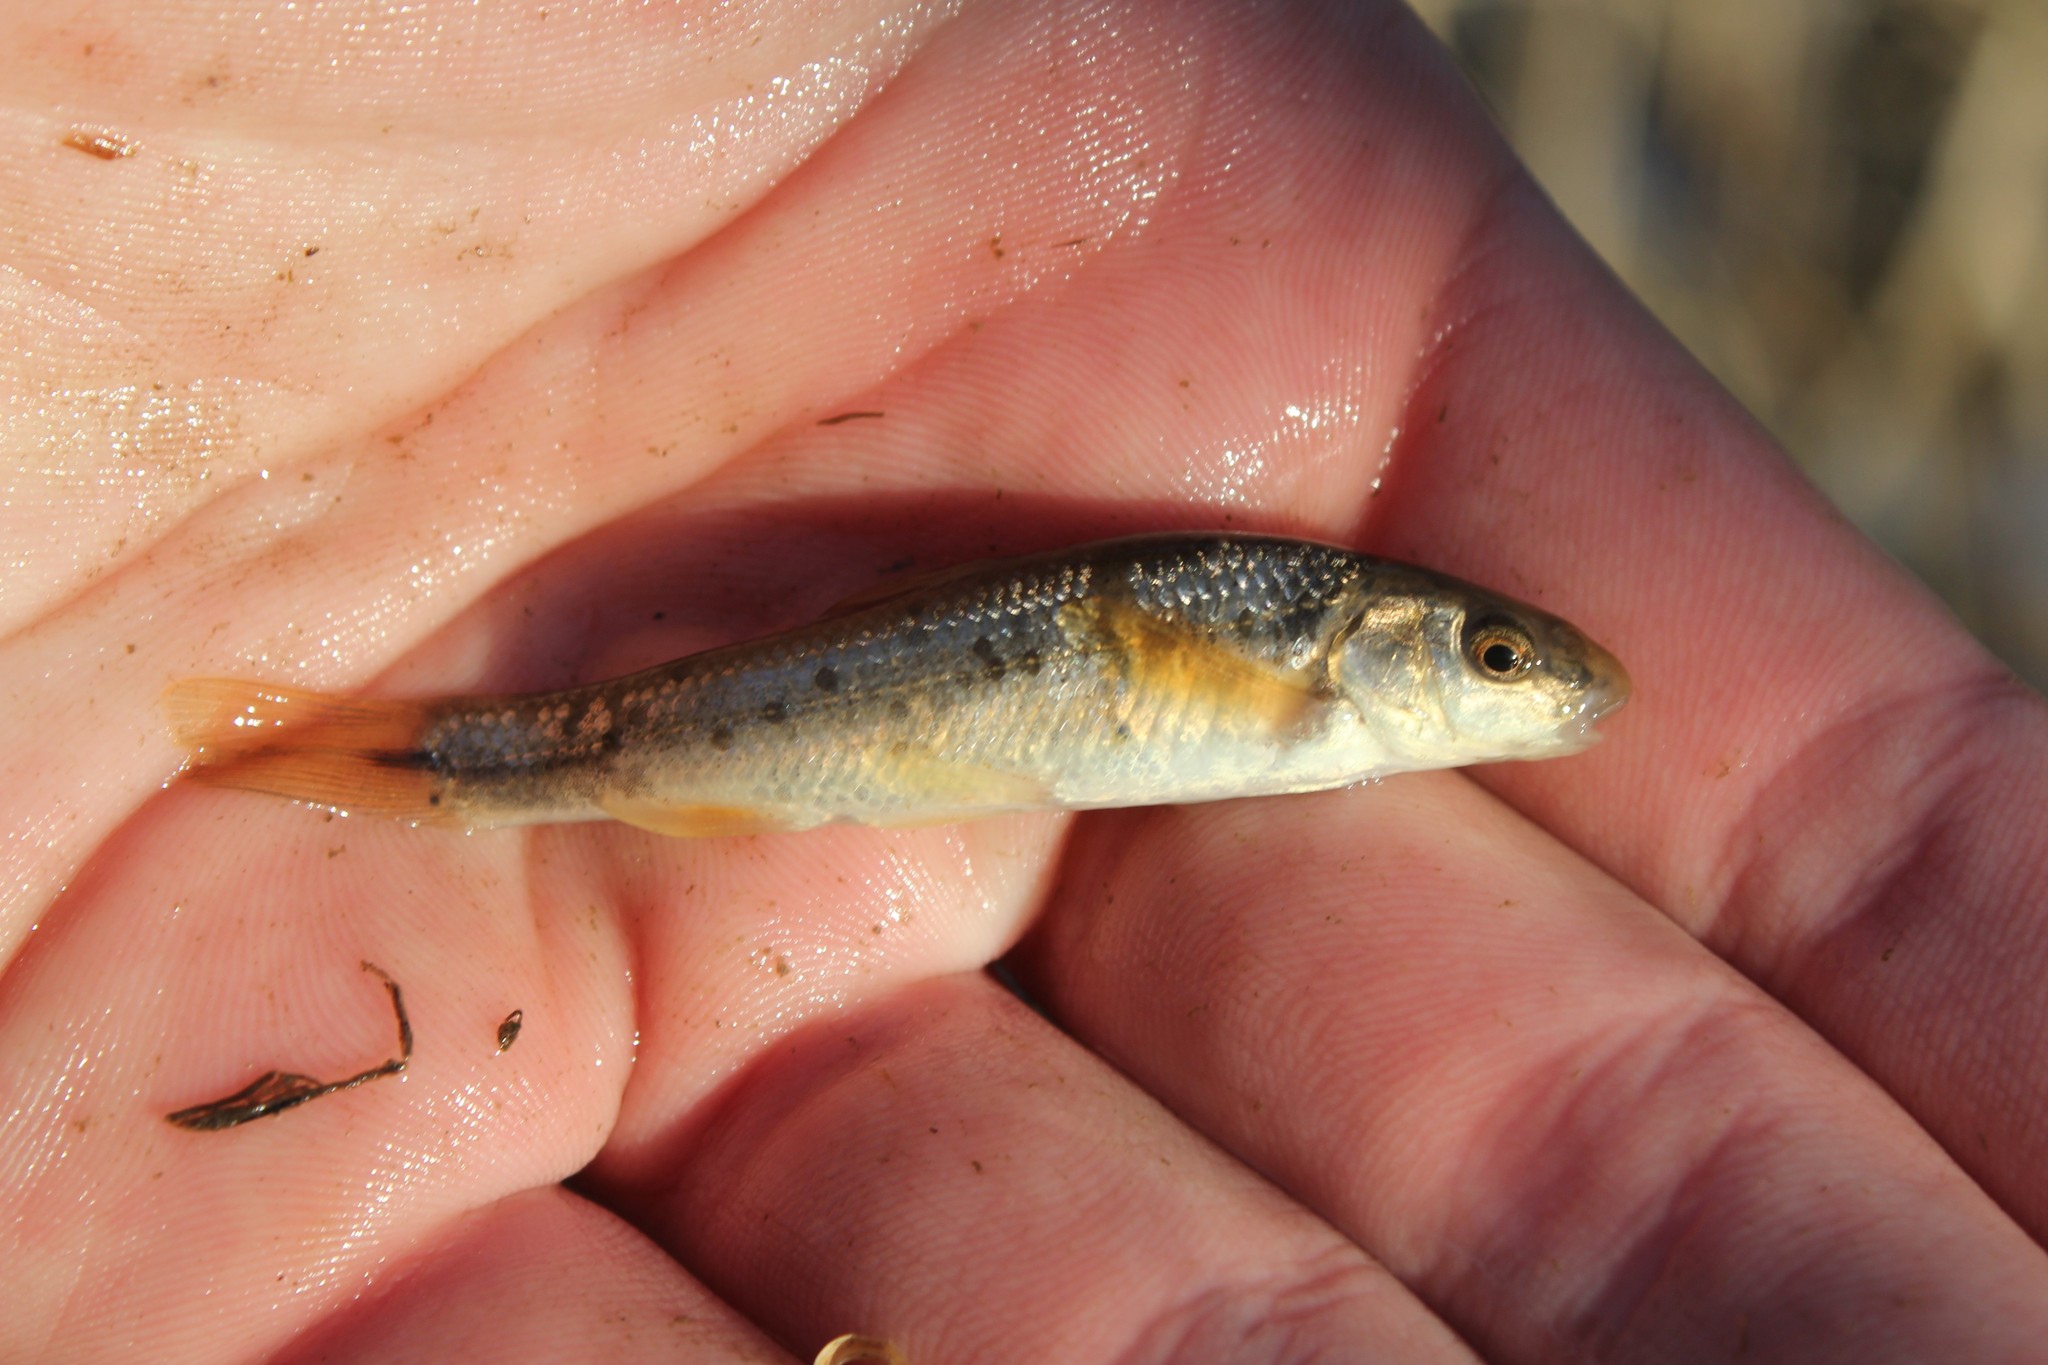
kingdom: Animalia
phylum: Chordata
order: Cypriniformes
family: Cyprinidae
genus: Campostoma
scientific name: Campostoma anomalum
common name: Central stoneroller
